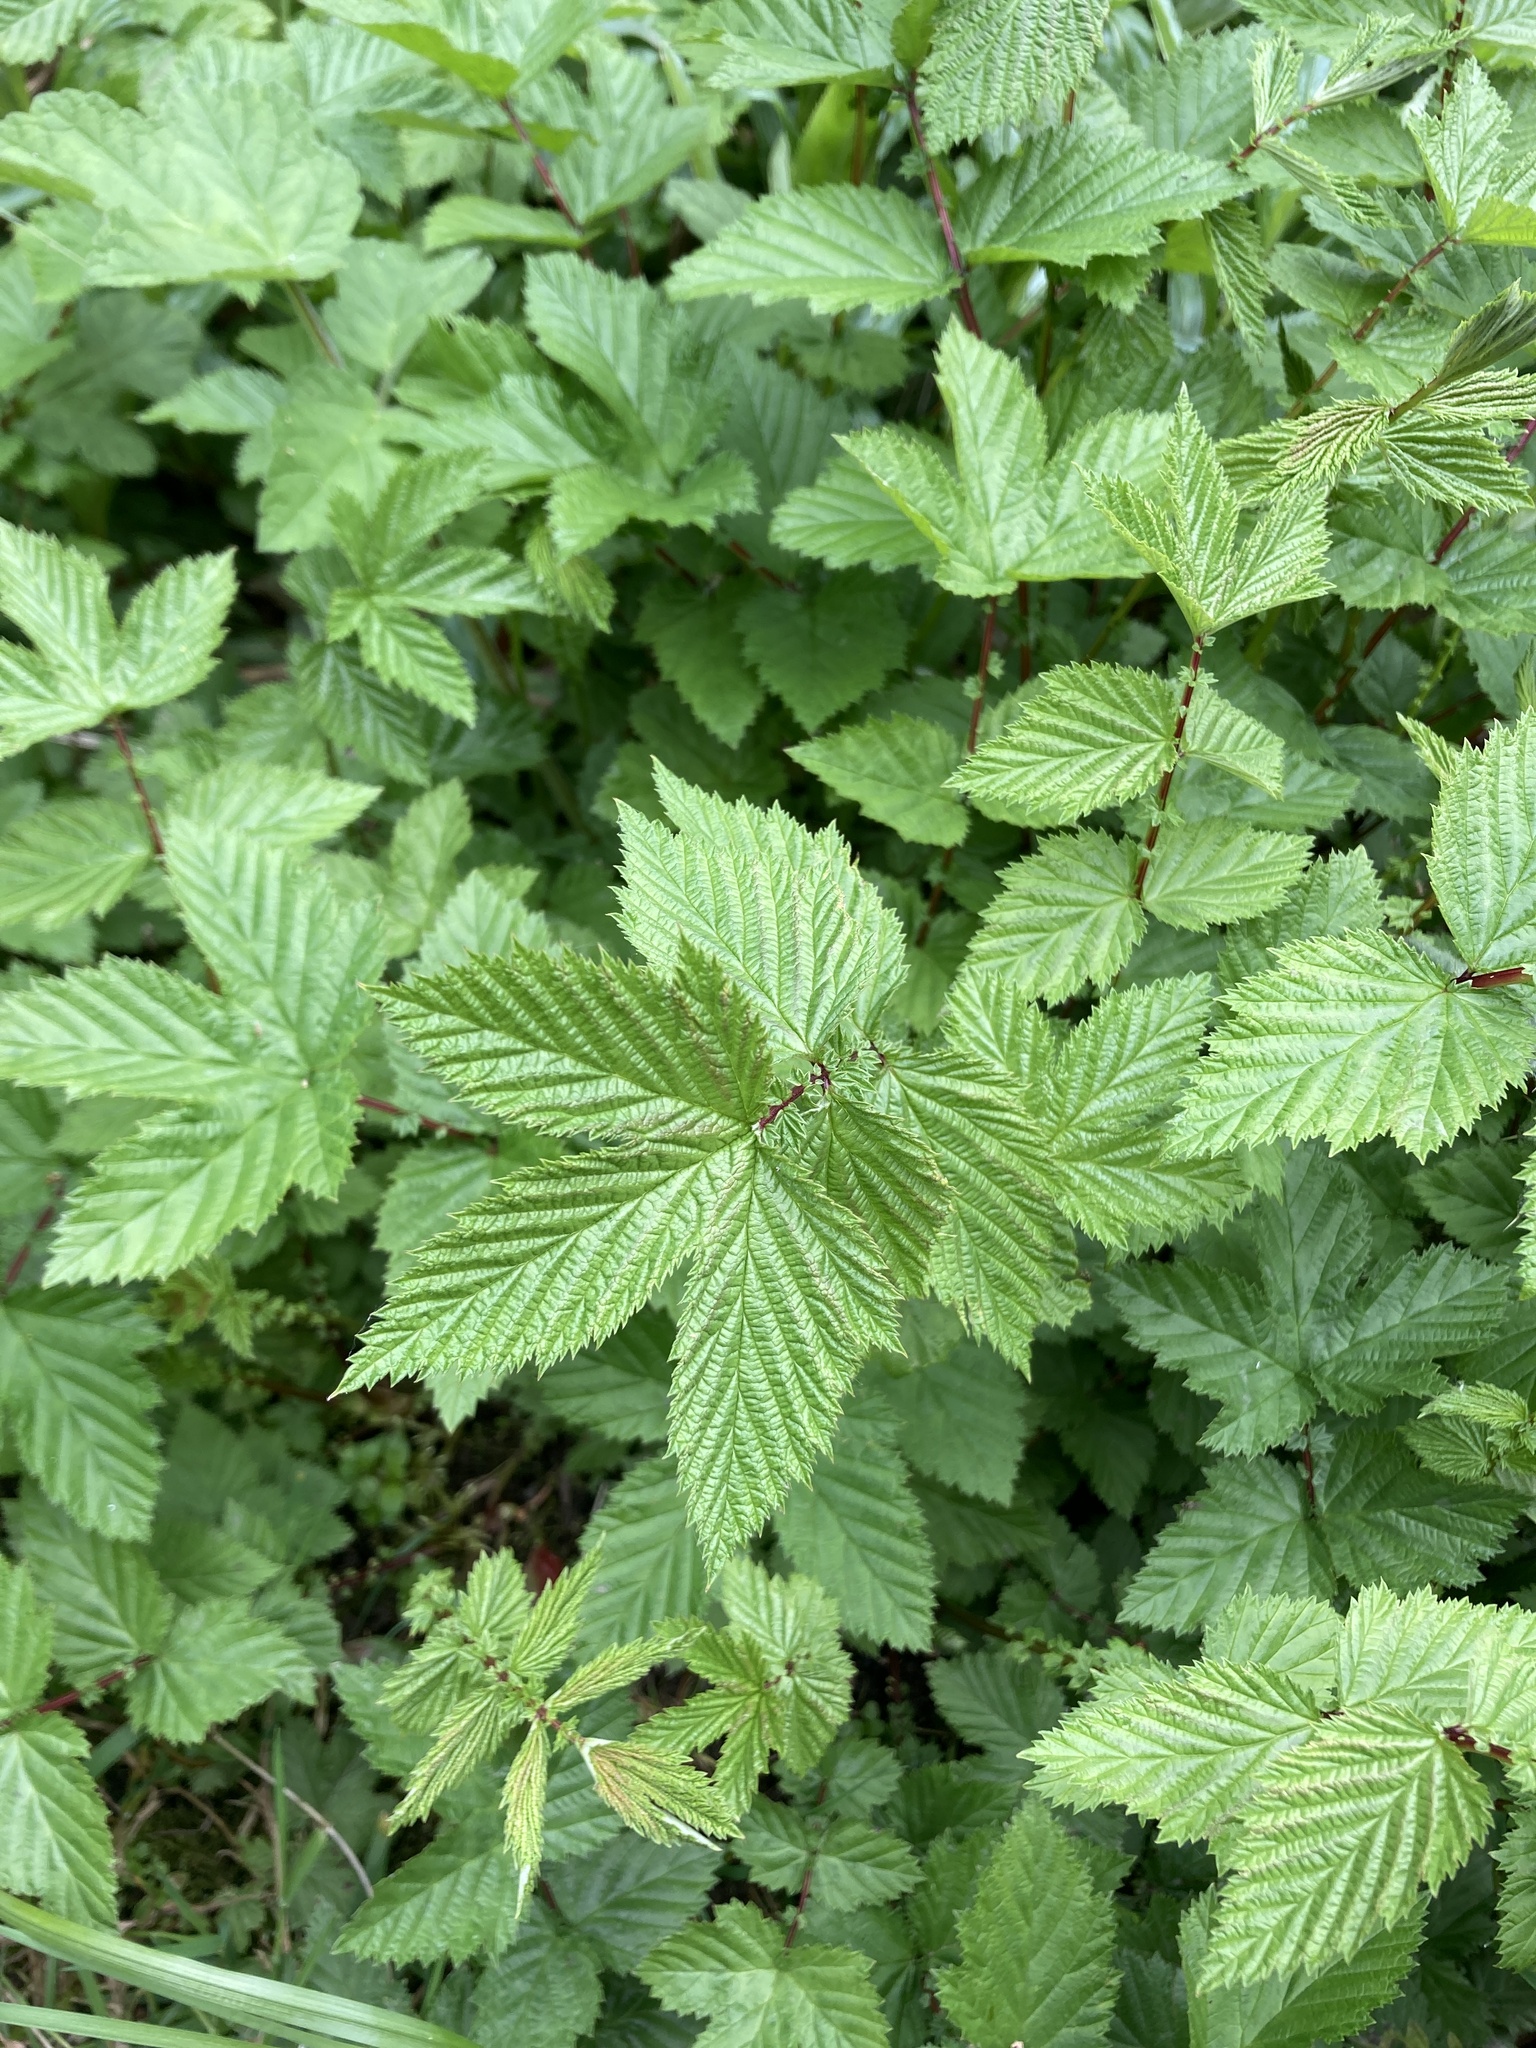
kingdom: Plantae
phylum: Tracheophyta
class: Magnoliopsida
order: Rosales
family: Rosaceae
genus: Filipendula
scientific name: Filipendula ulmaria
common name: Meadowsweet
